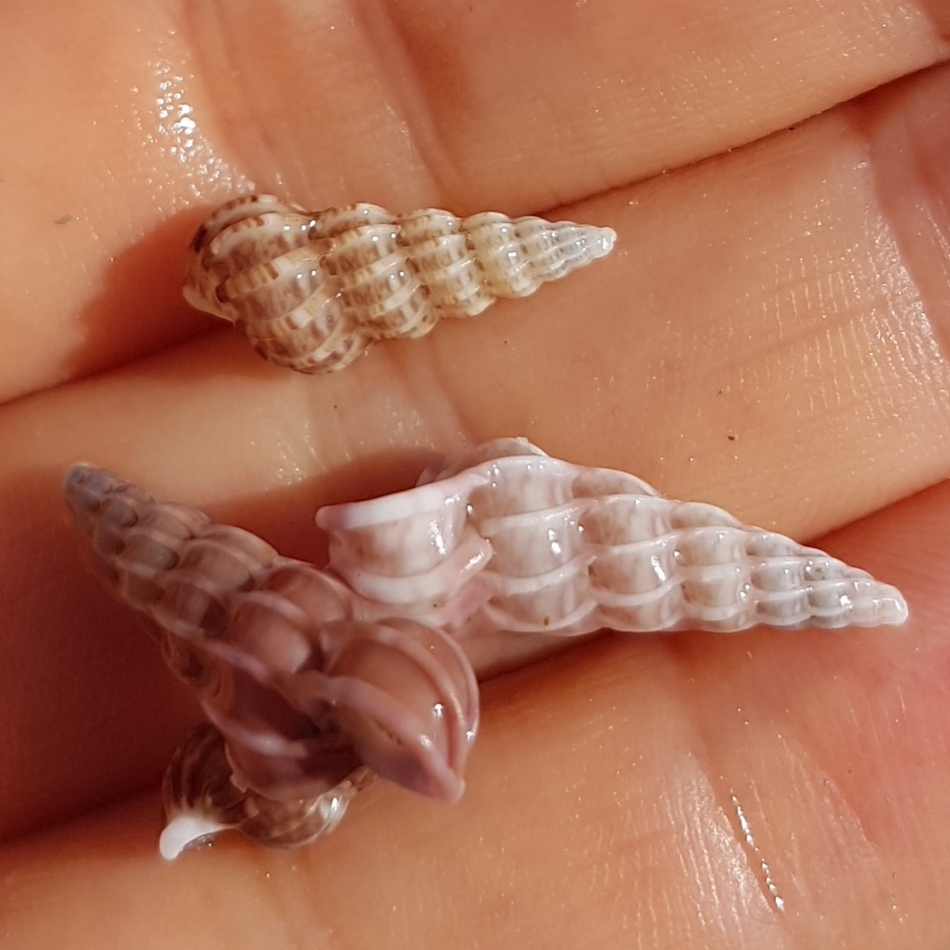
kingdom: Animalia
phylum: Mollusca
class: Gastropoda
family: Epitoniidae
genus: Epitonium
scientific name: Epitonium clathrus
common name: Common wentletrap
